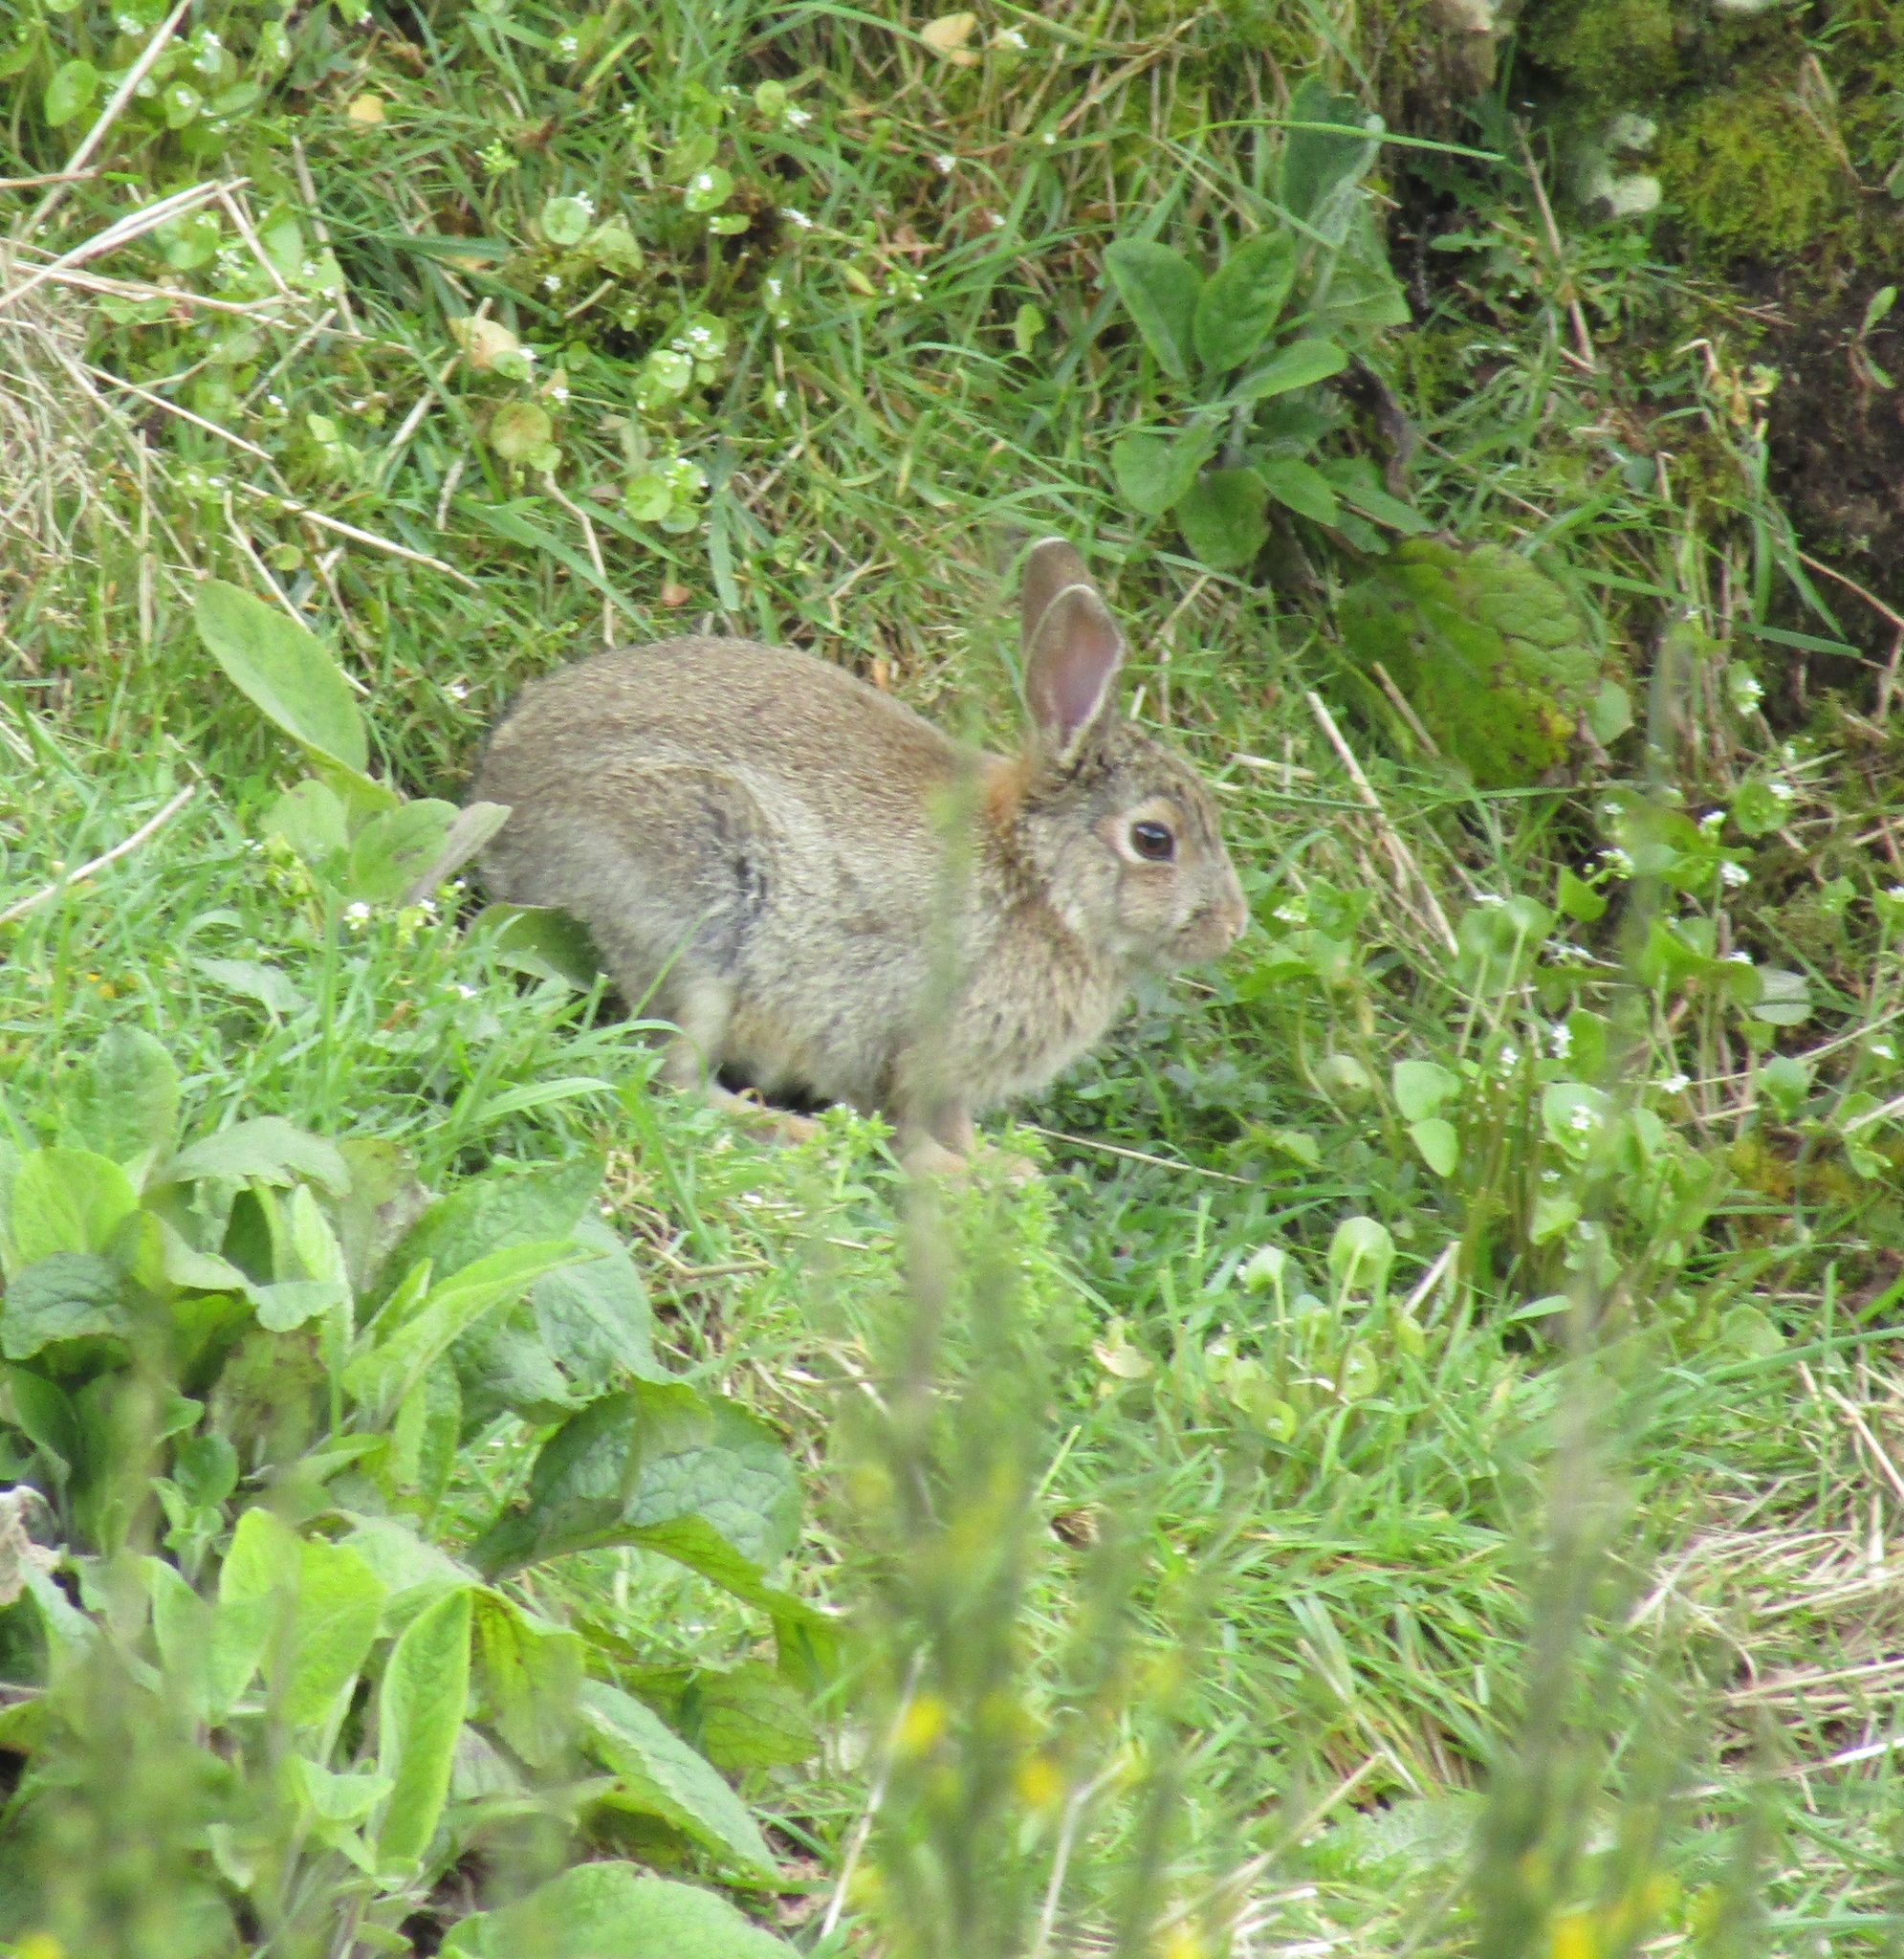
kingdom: Animalia
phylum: Chordata
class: Mammalia
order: Lagomorpha
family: Leporidae
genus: Oryctolagus
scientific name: Oryctolagus cuniculus
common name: European rabbit
